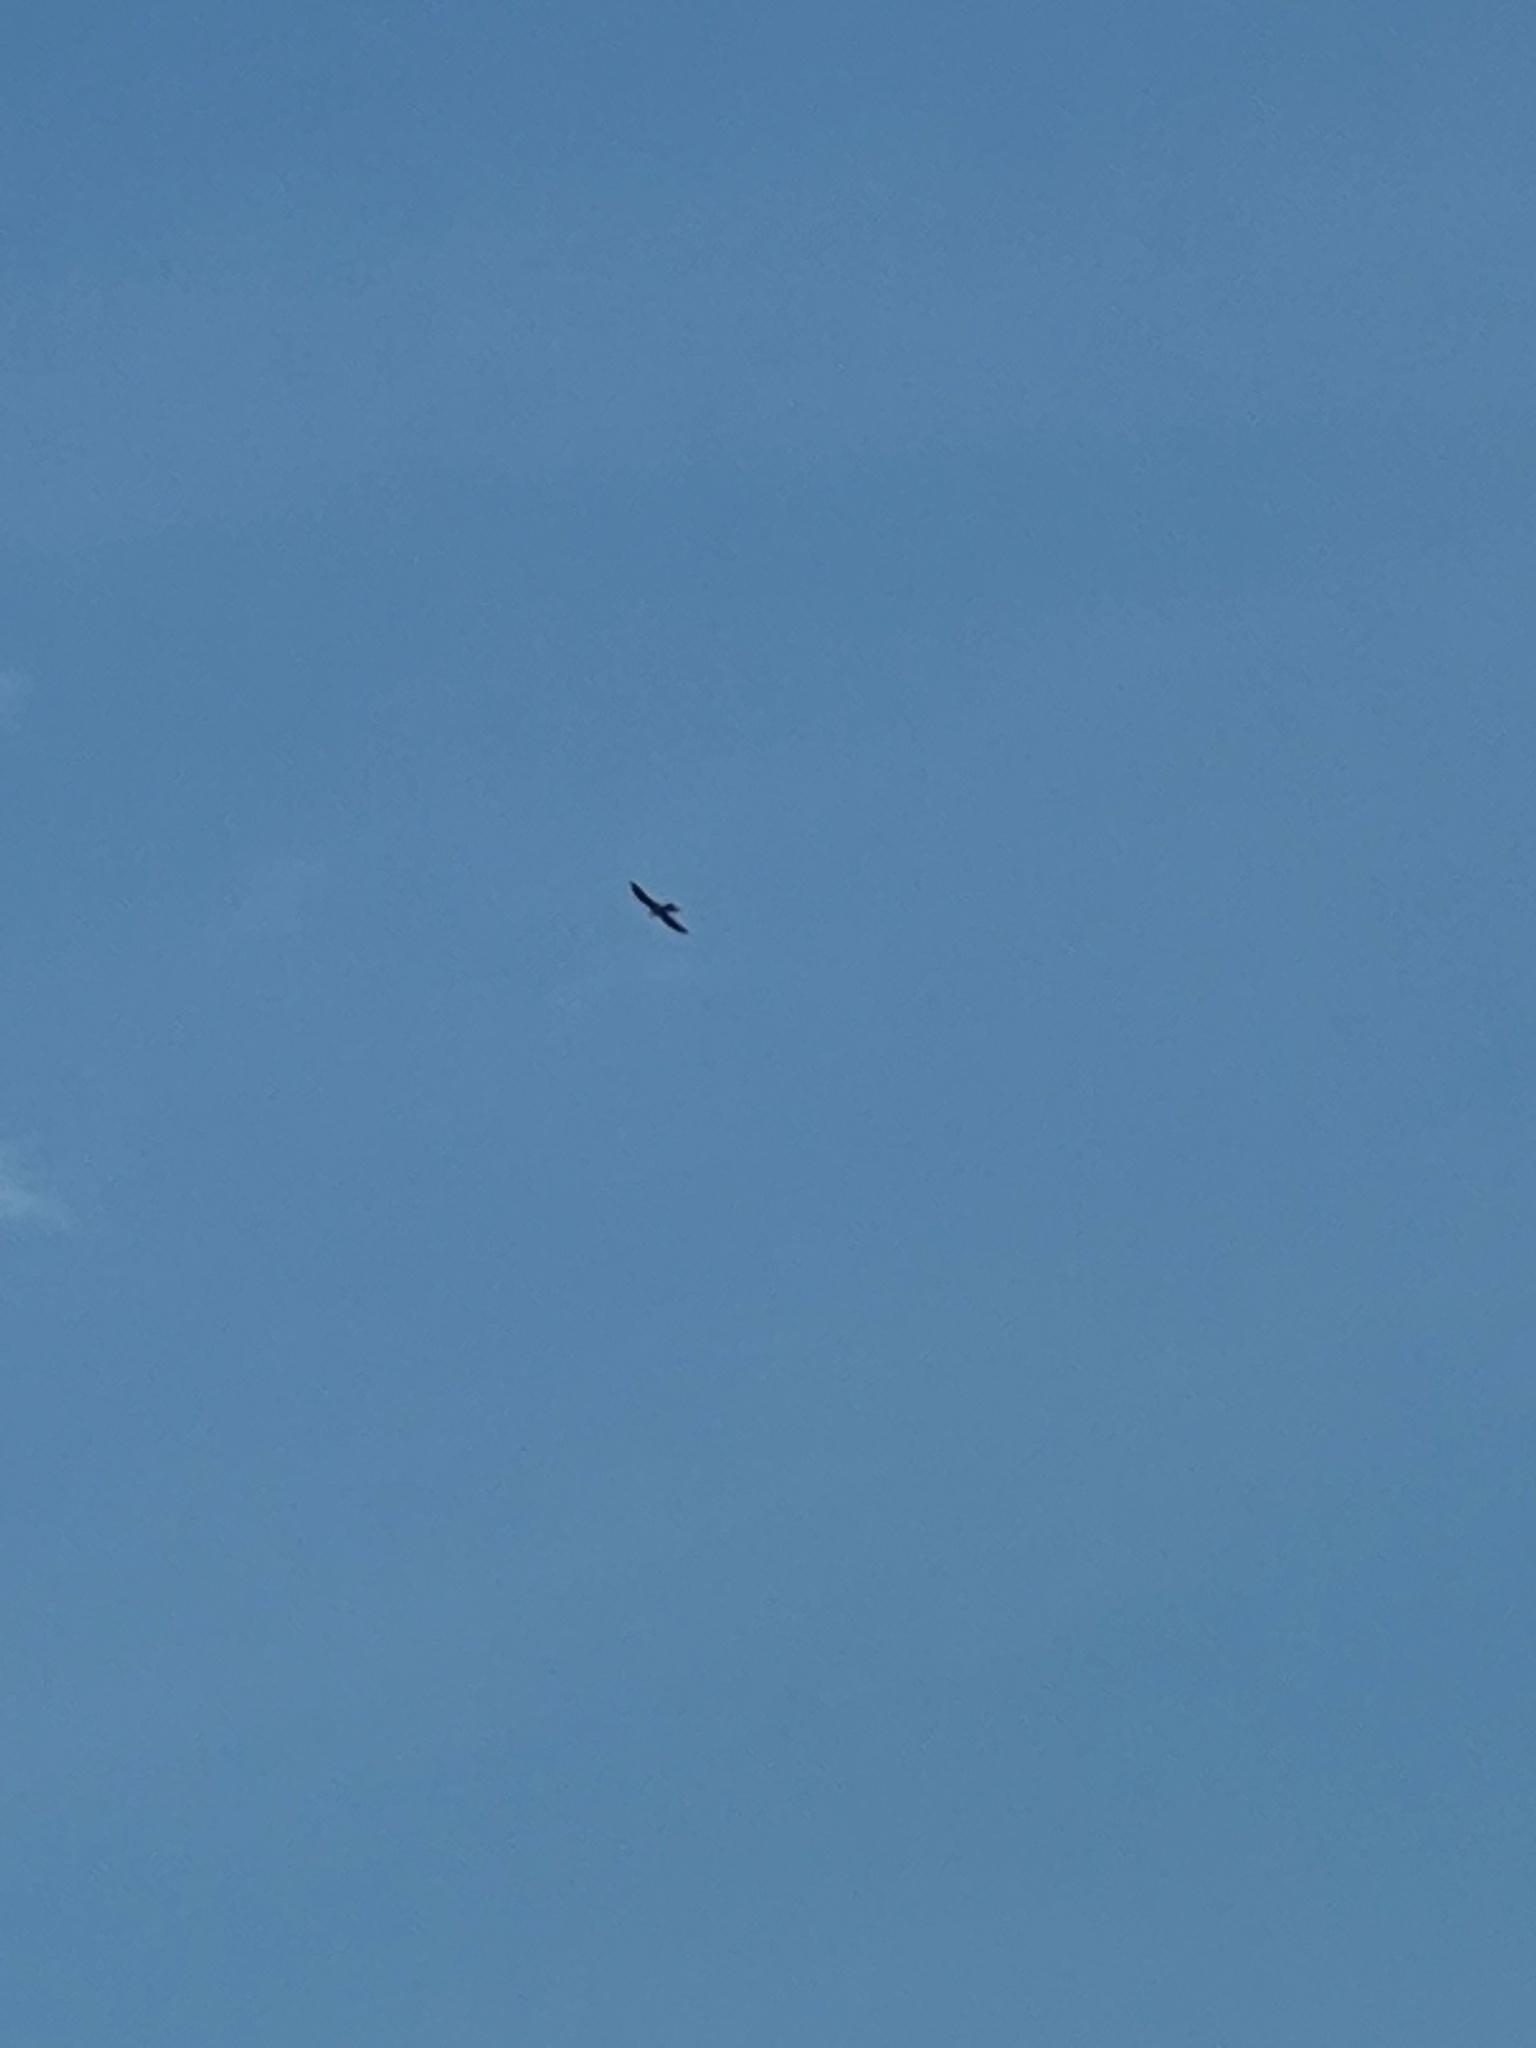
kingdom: Animalia
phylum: Chordata
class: Aves
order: Accipitriformes
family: Accipitridae
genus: Ictinia
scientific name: Ictinia mississippiensis
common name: Mississippi kite
